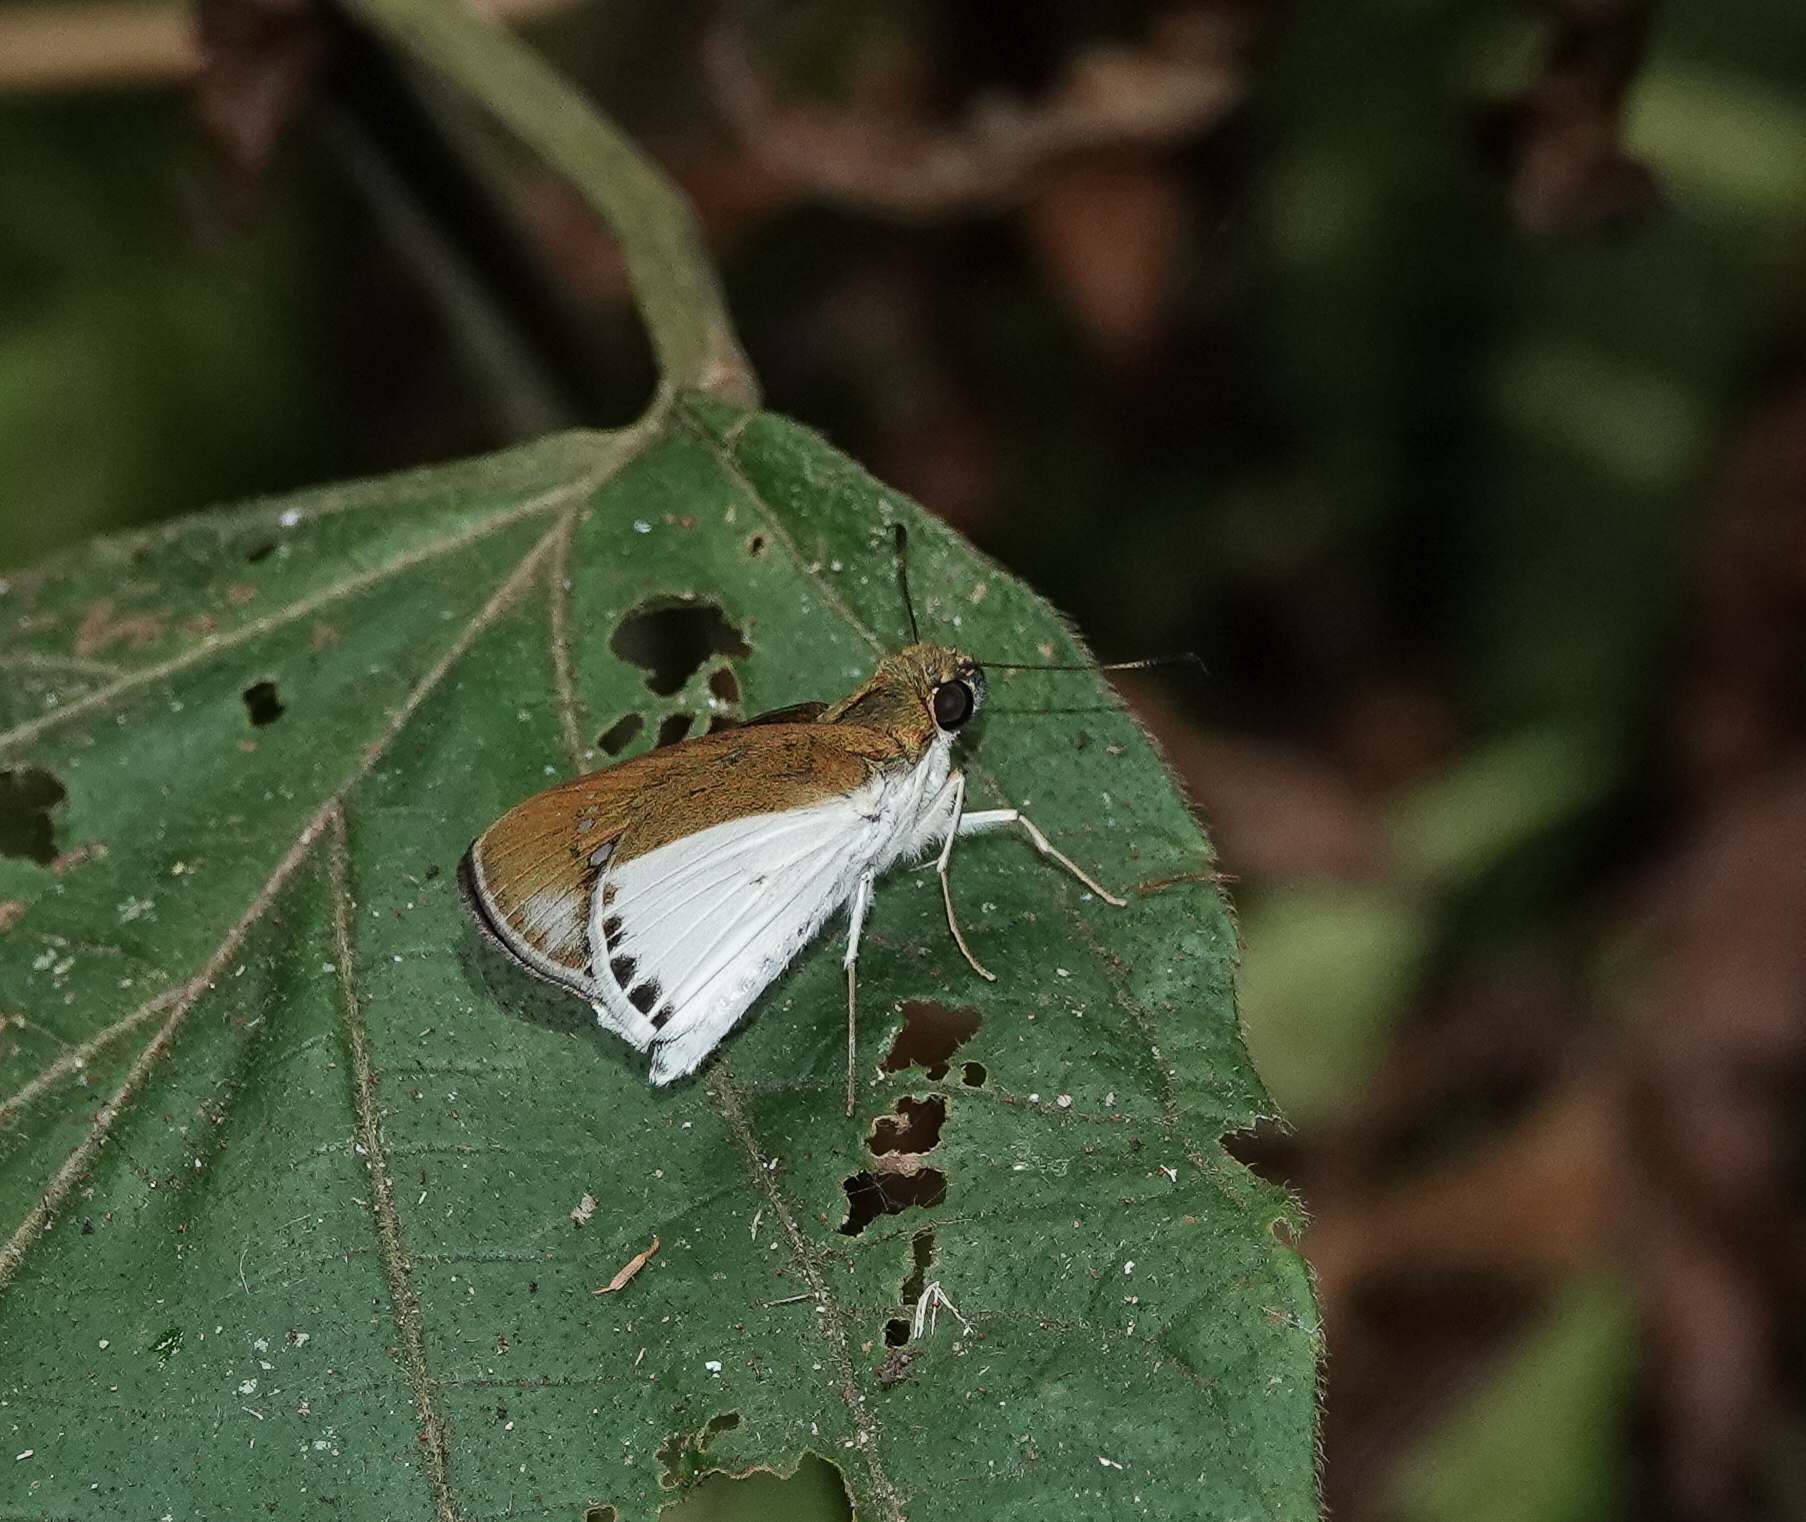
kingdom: Animalia
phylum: Arthropoda
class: Insecta
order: Lepidoptera
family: Hesperiidae
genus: Iton
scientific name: Iton semamora
